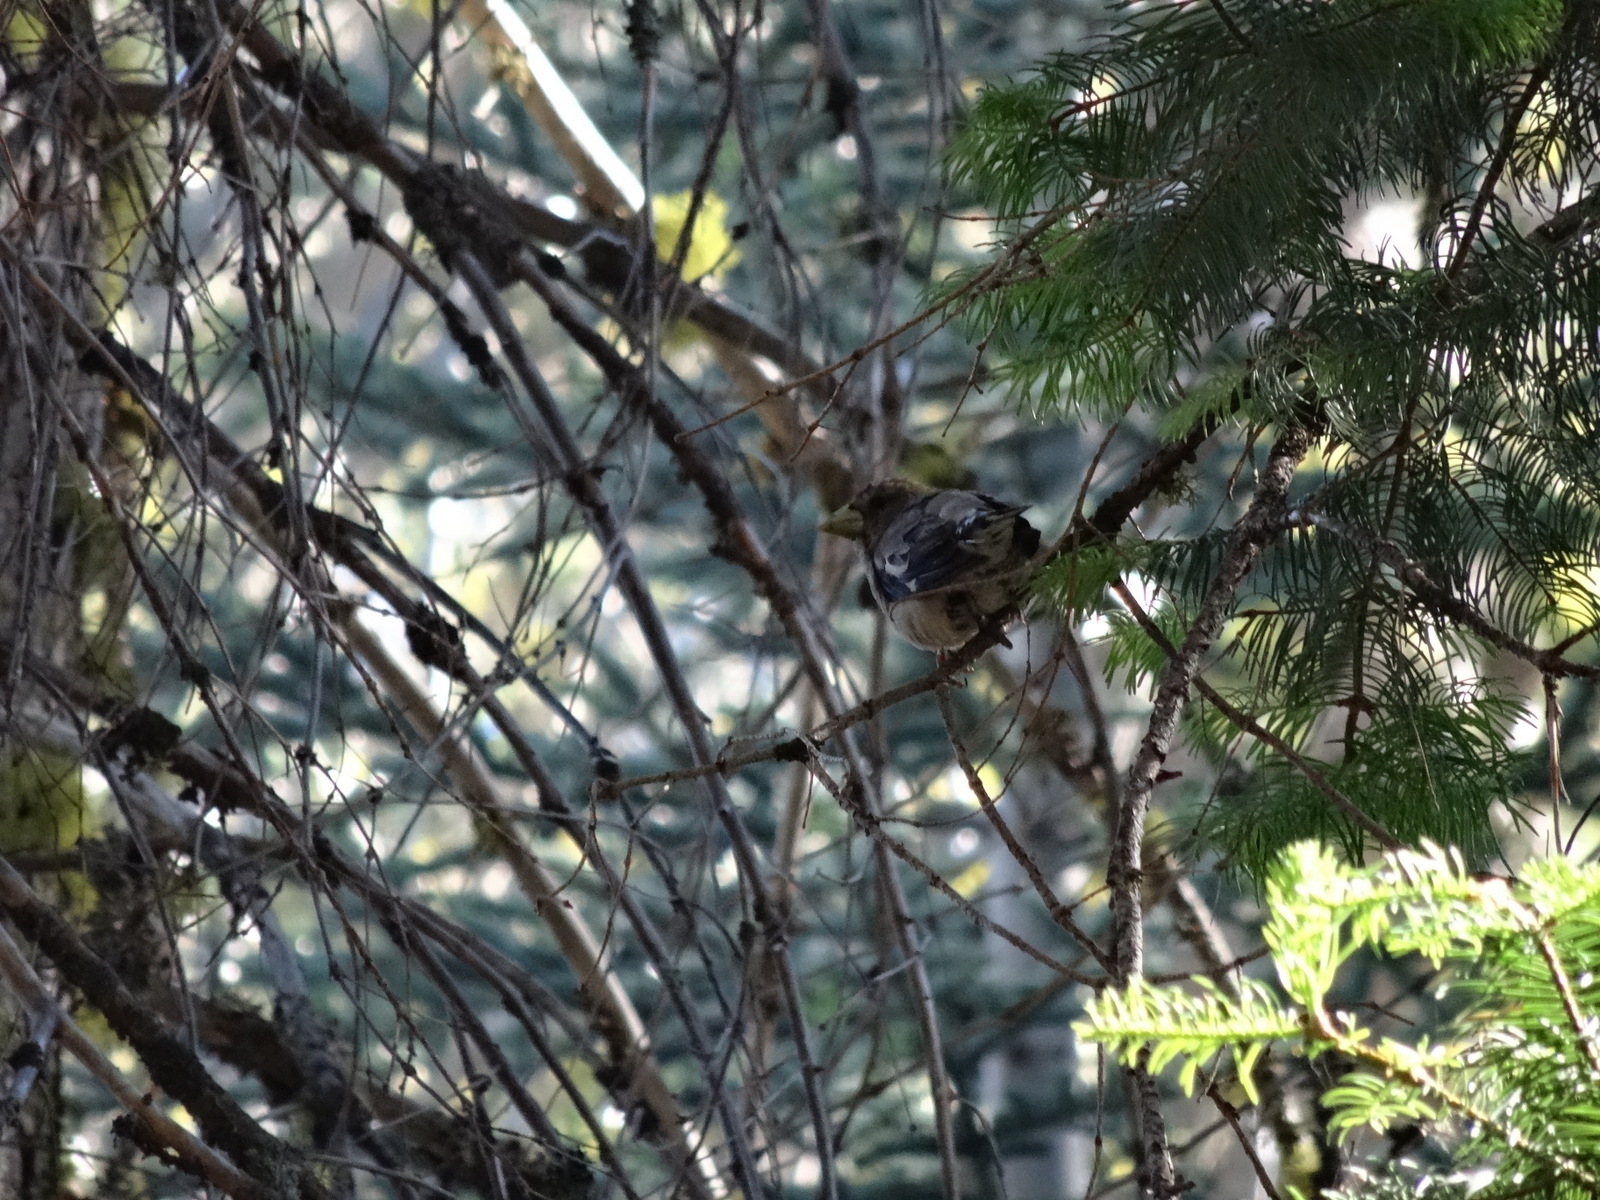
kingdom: Animalia
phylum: Chordata
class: Aves
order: Passeriformes
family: Fringillidae
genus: Hesperiphona
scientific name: Hesperiphona vespertina
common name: Evening grosbeak
